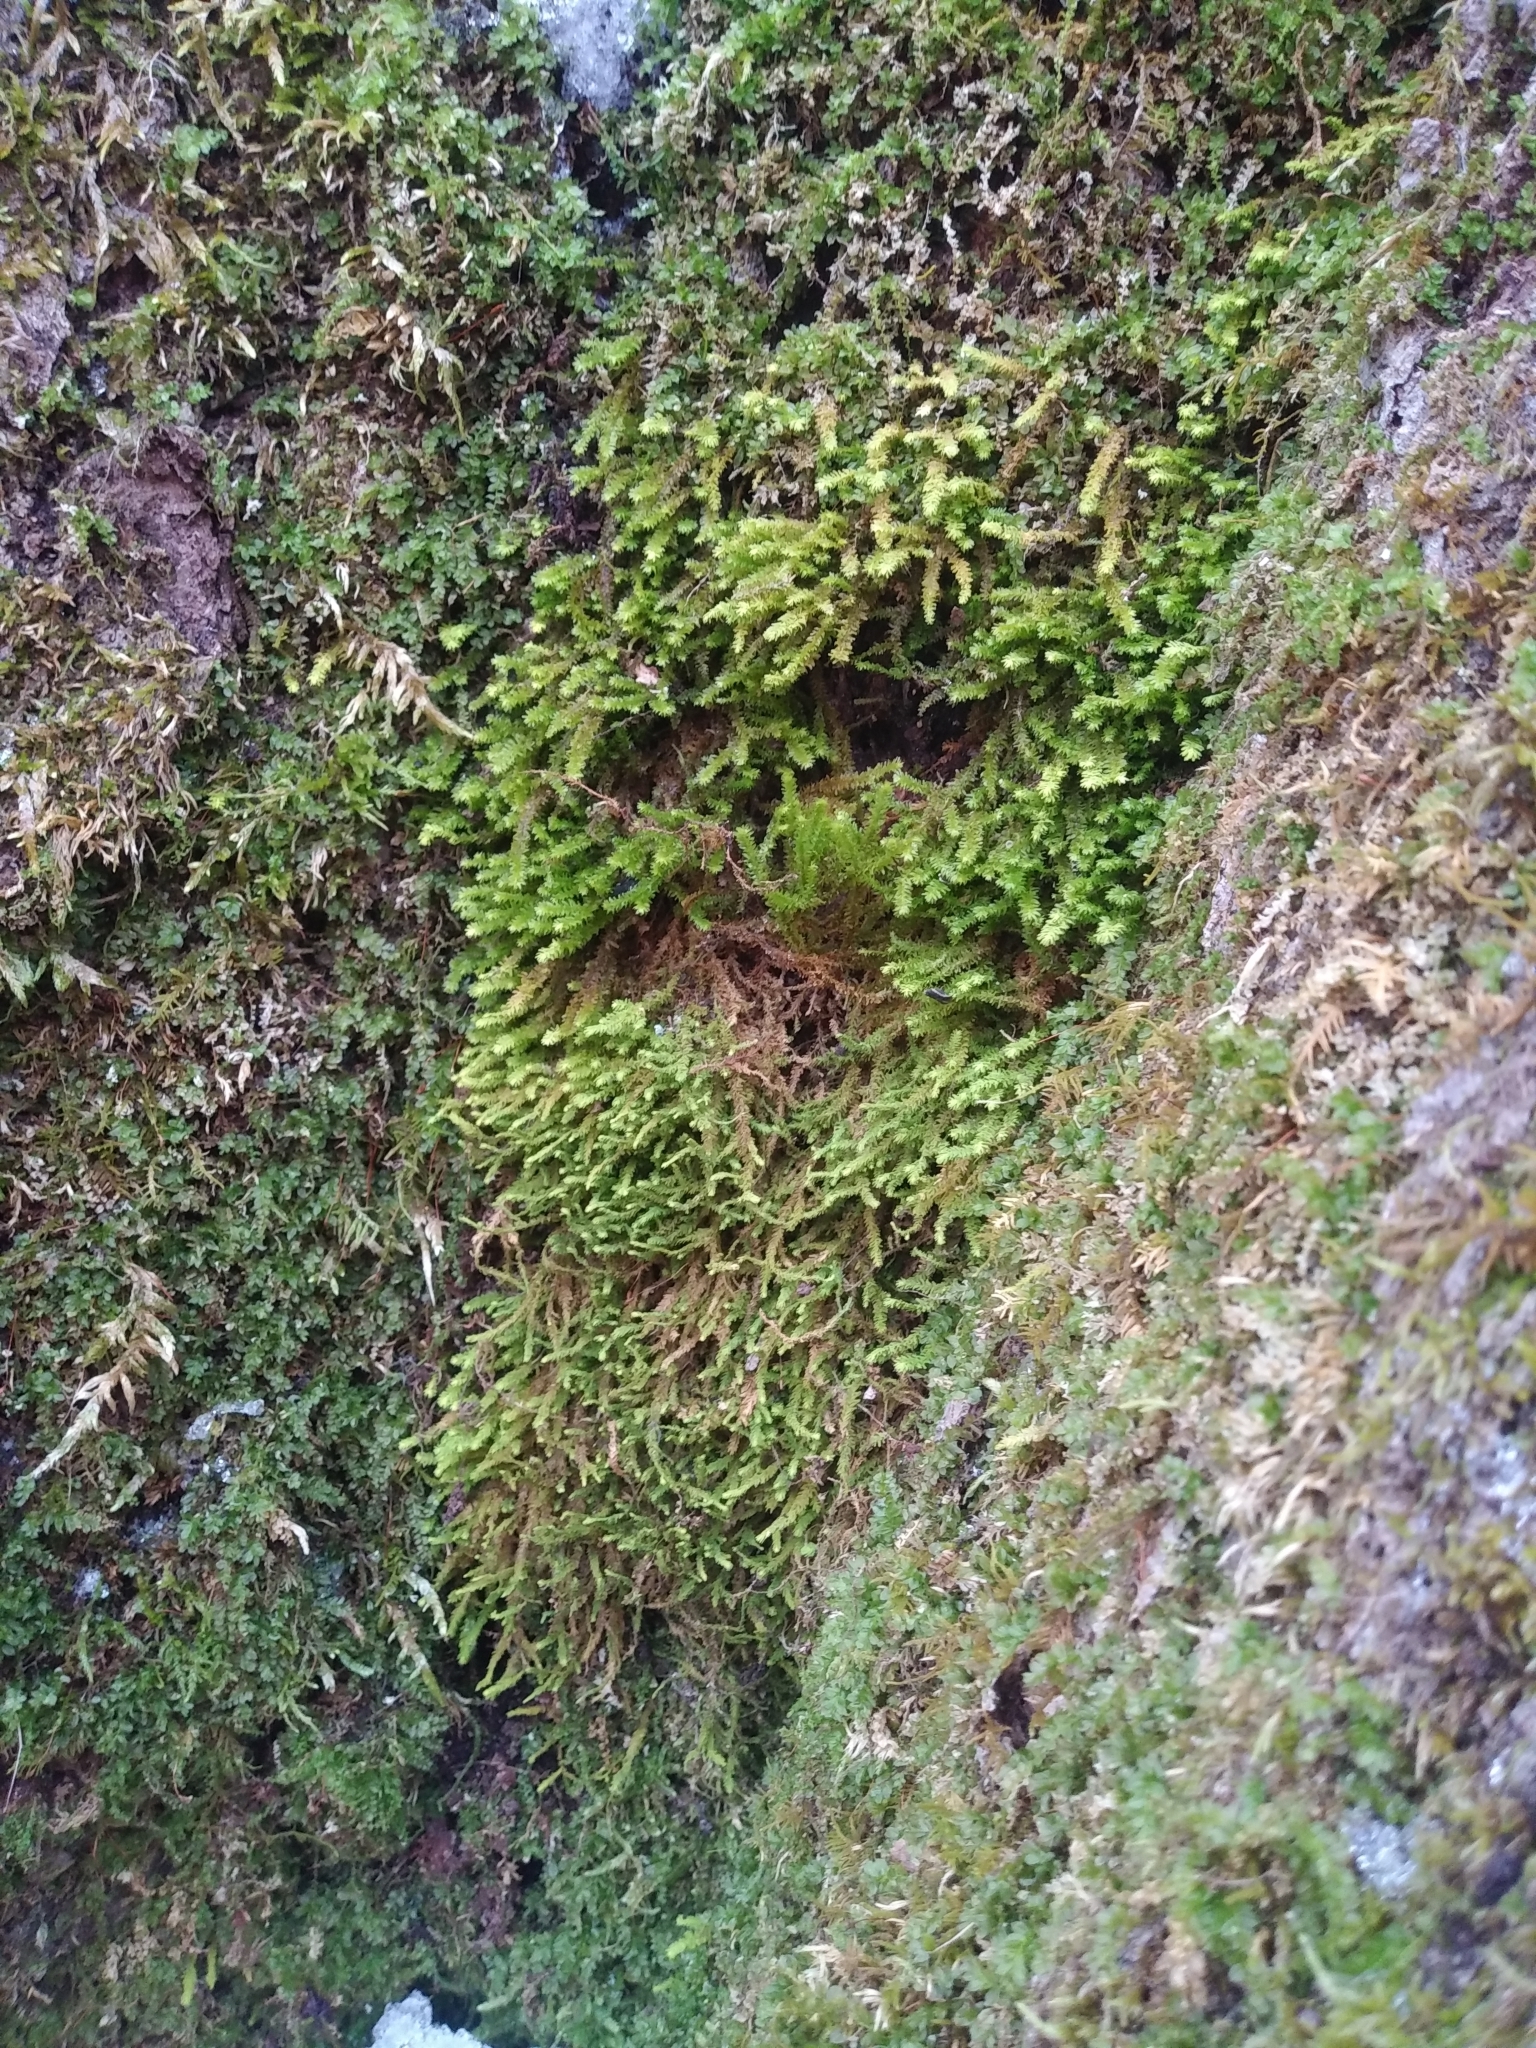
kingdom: Plantae
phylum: Bryophyta
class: Bryopsida
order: Hypnales
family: Anomodontaceae
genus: Anomodon
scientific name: Anomodon minor
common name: Blunt-leaved anomodon
